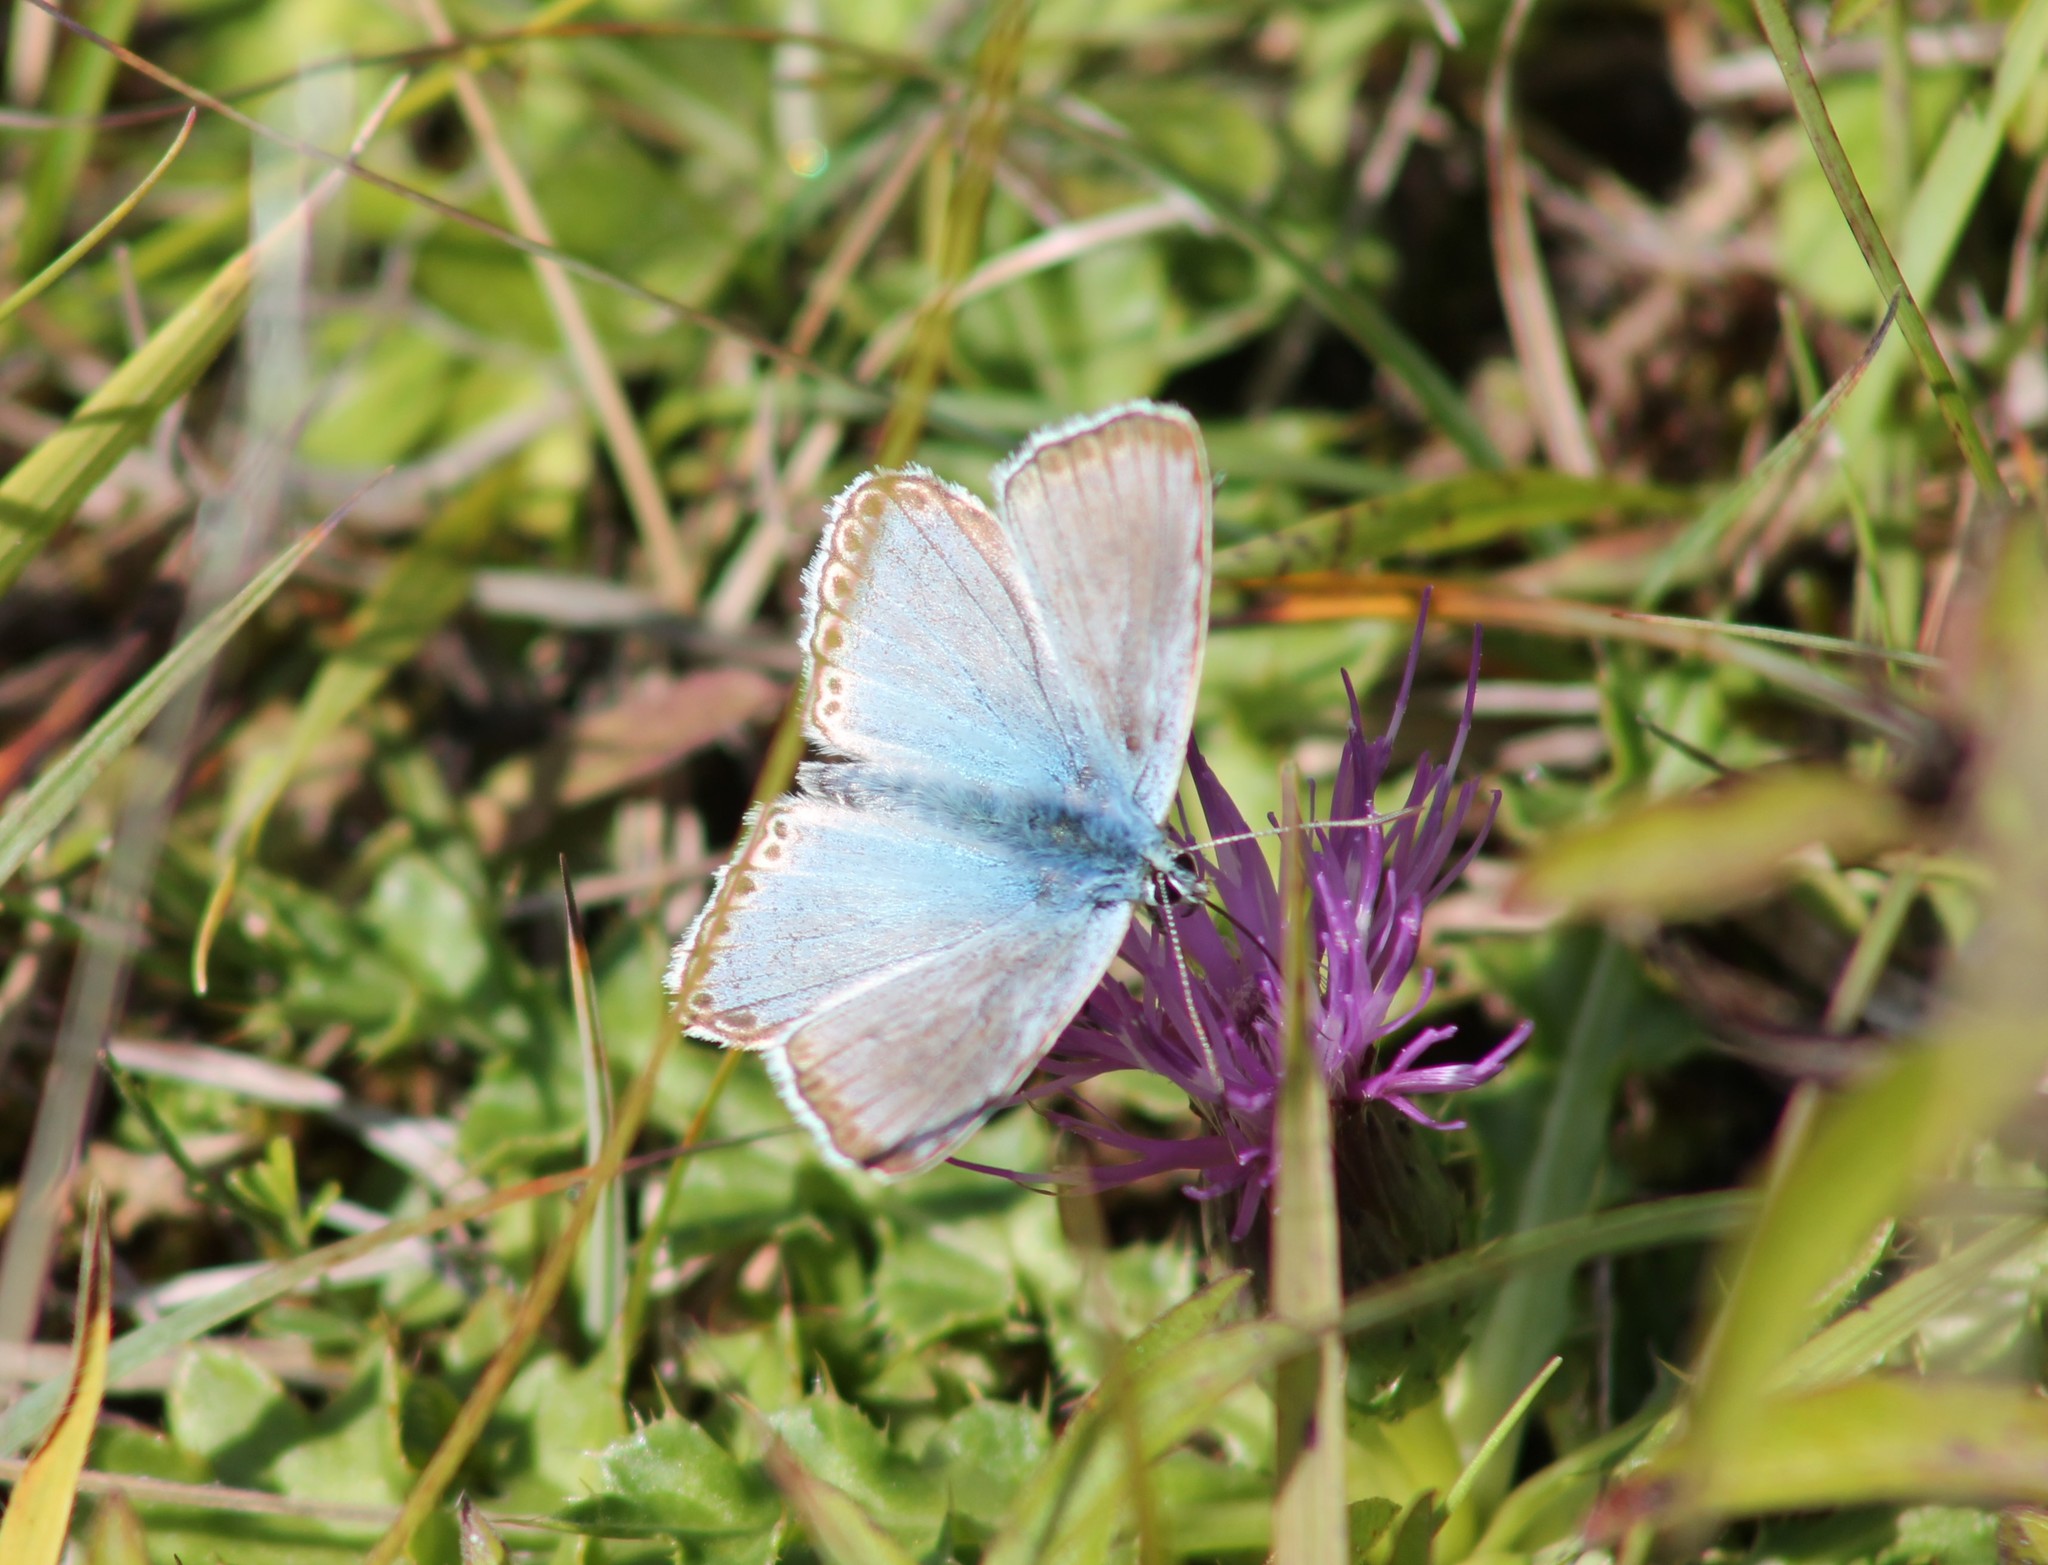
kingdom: Animalia
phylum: Arthropoda
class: Insecta
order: Lepidoptera
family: Lycaenidae
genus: Lysandra
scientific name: Lysandra coridon
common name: Chalkhill blue
